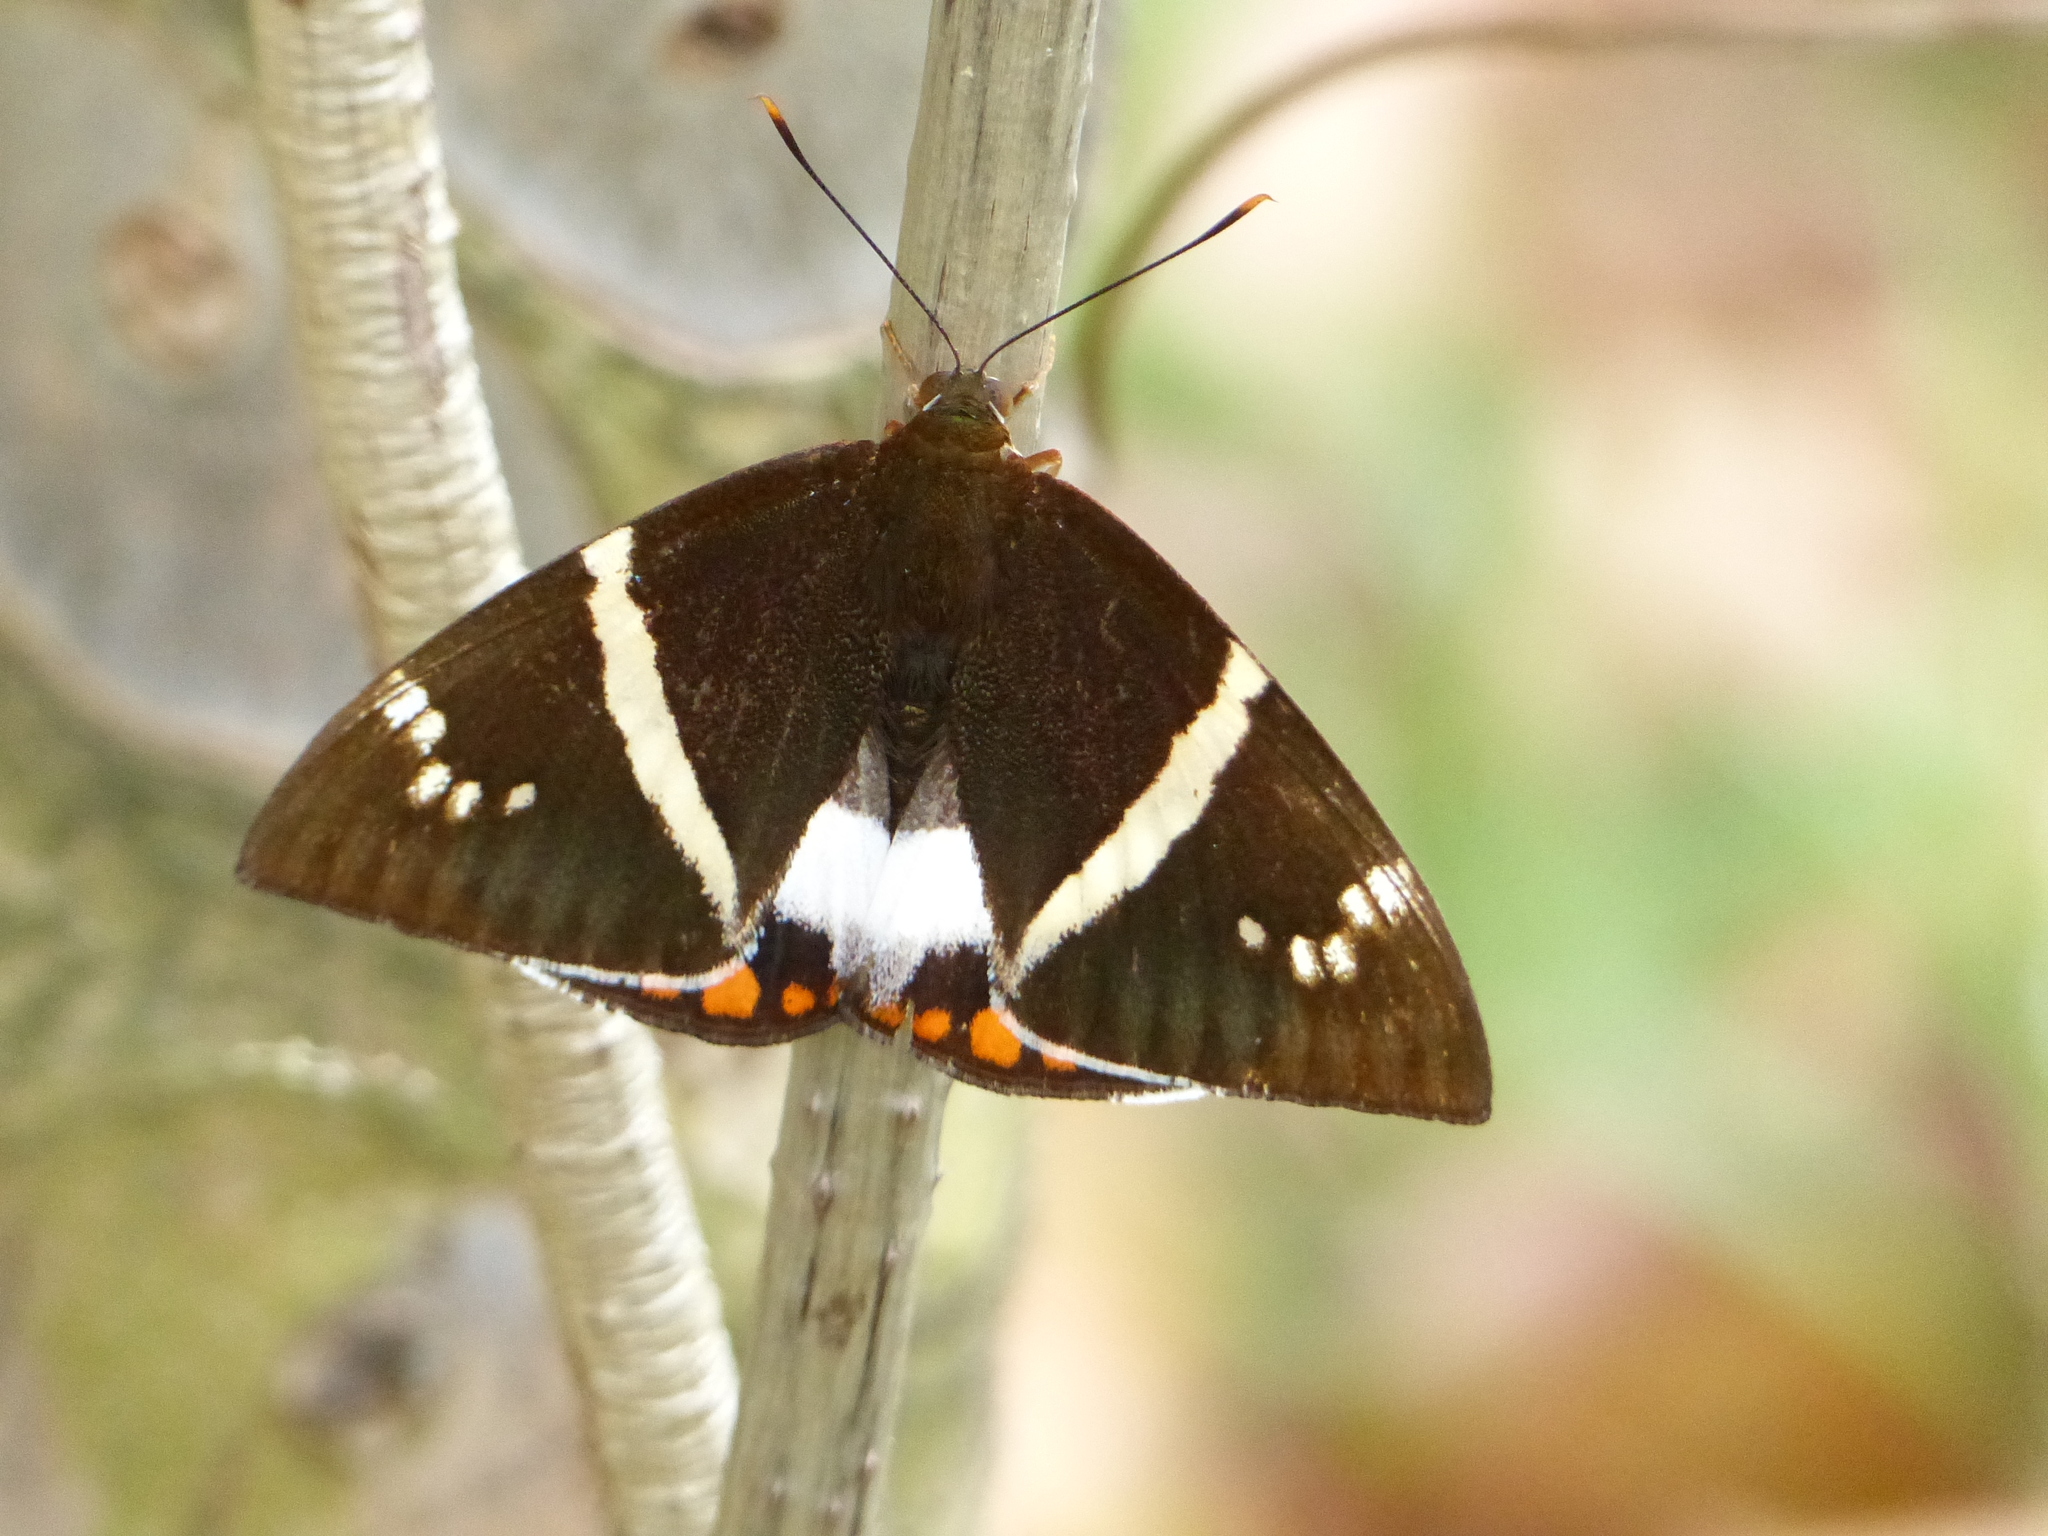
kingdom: Animalia
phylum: Arthropoda
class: Insecta
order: Lepidoptera
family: Castniidae
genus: Castnia
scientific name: Castnia licus
